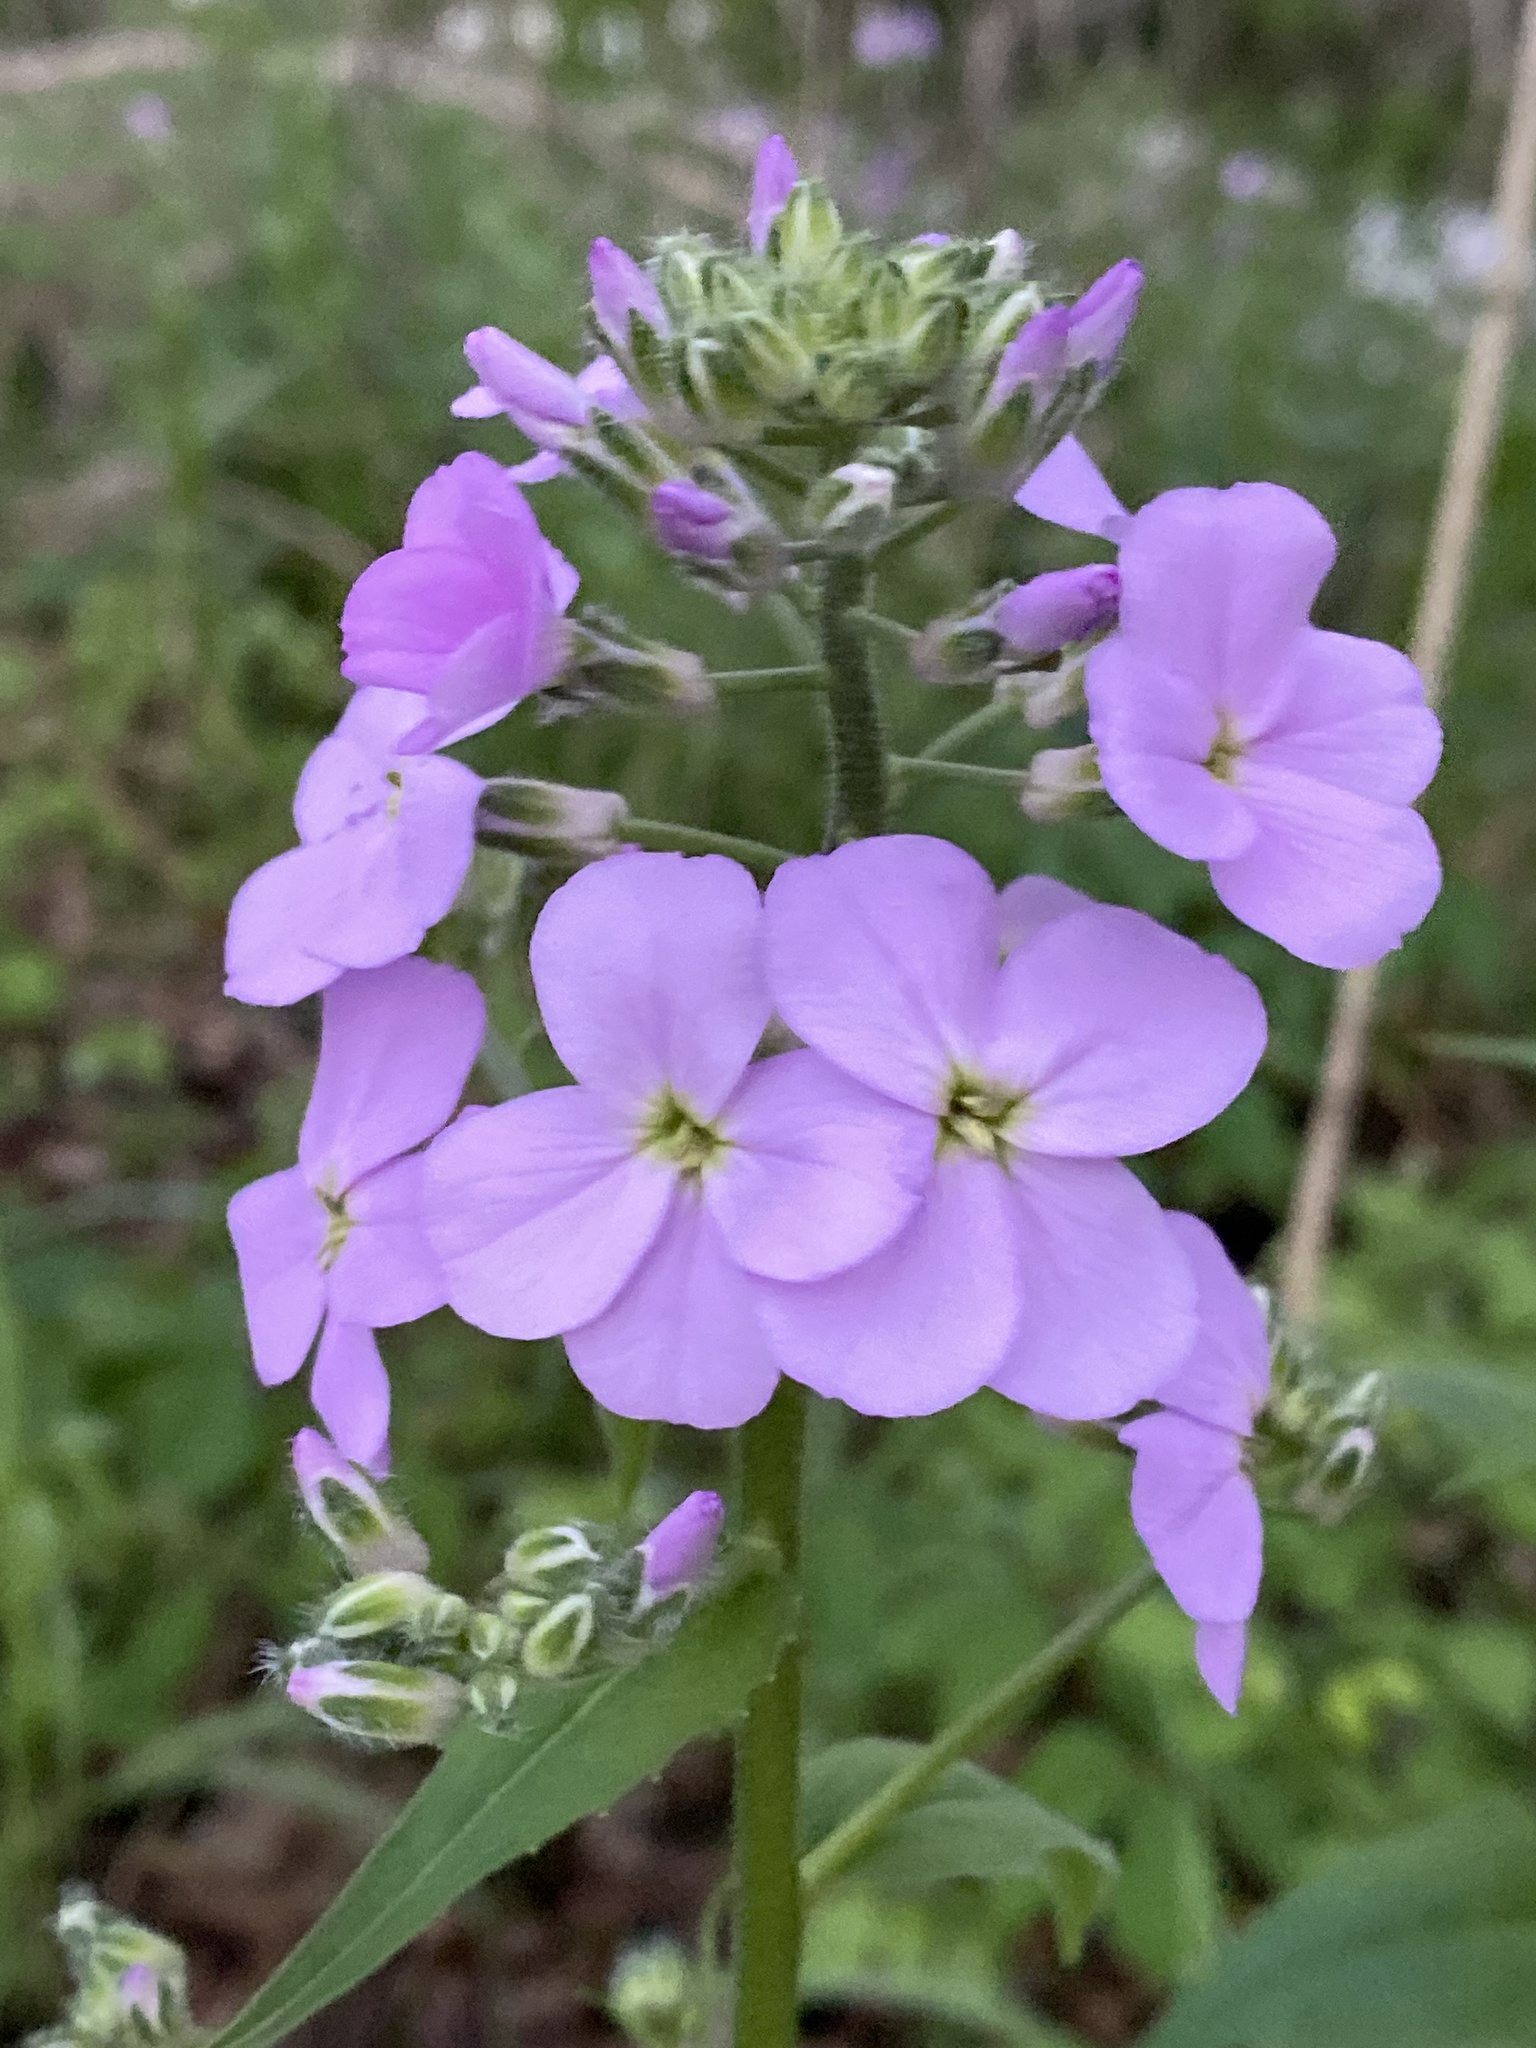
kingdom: Plantae
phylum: Tracheophyta
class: Magnoliopsida
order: Brassicales
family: Brassicaceae
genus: Hesperis
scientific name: Hesperis matronalis
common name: Dame's-violet
